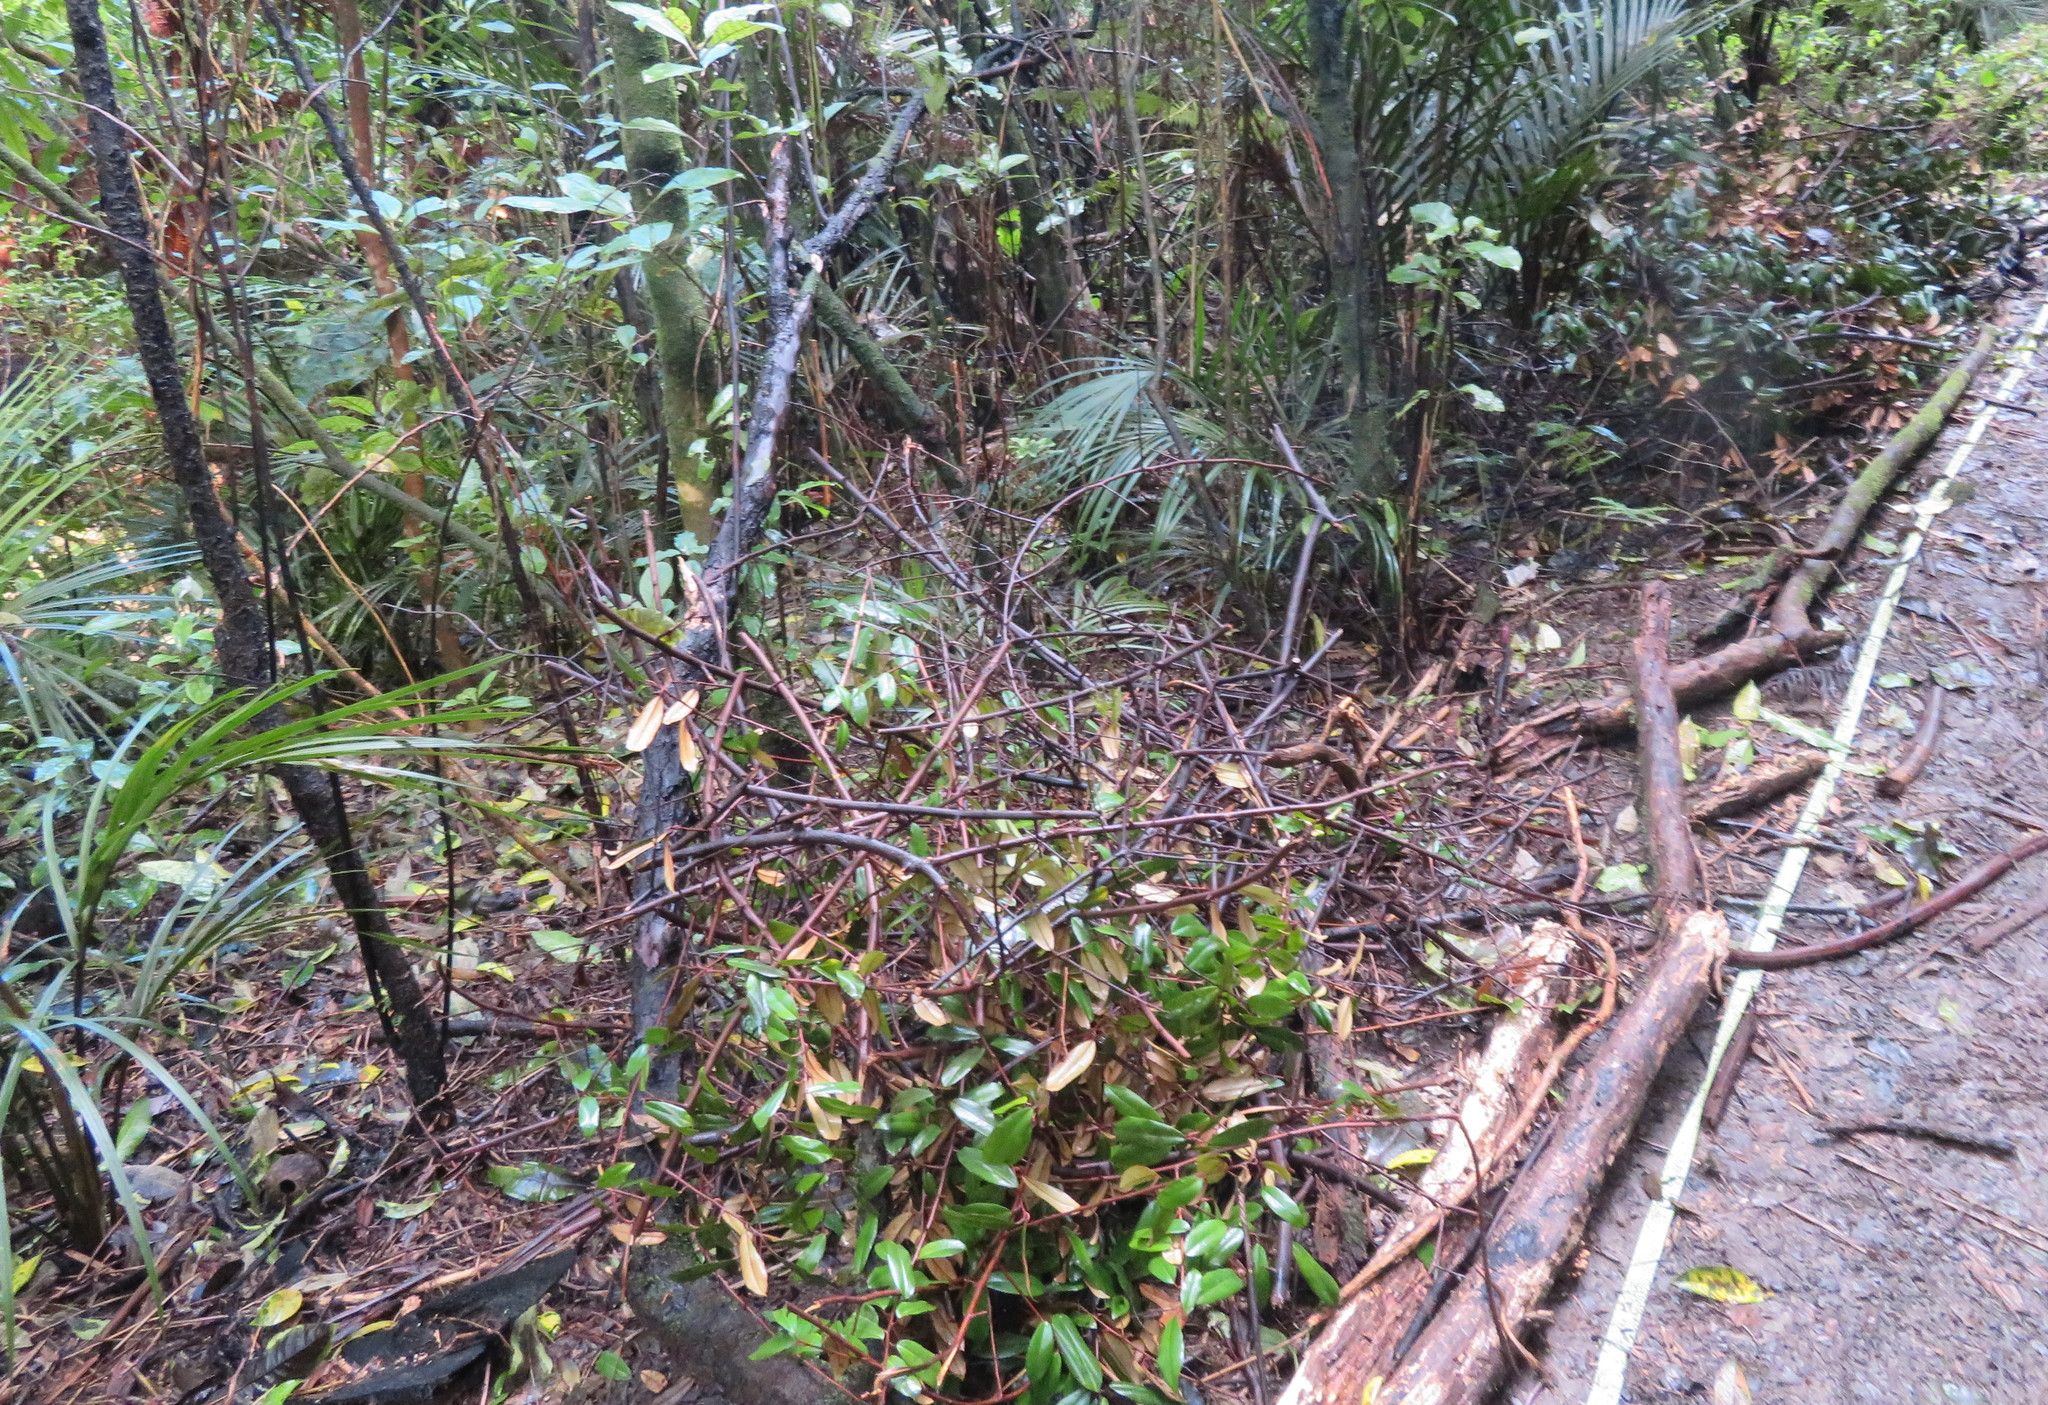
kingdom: Plantae
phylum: Tracheophyta
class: Magnoliopsida
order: Rosales
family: Elaeagnaceae
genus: Elaeagnus
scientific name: Elaeagnus reflexa
